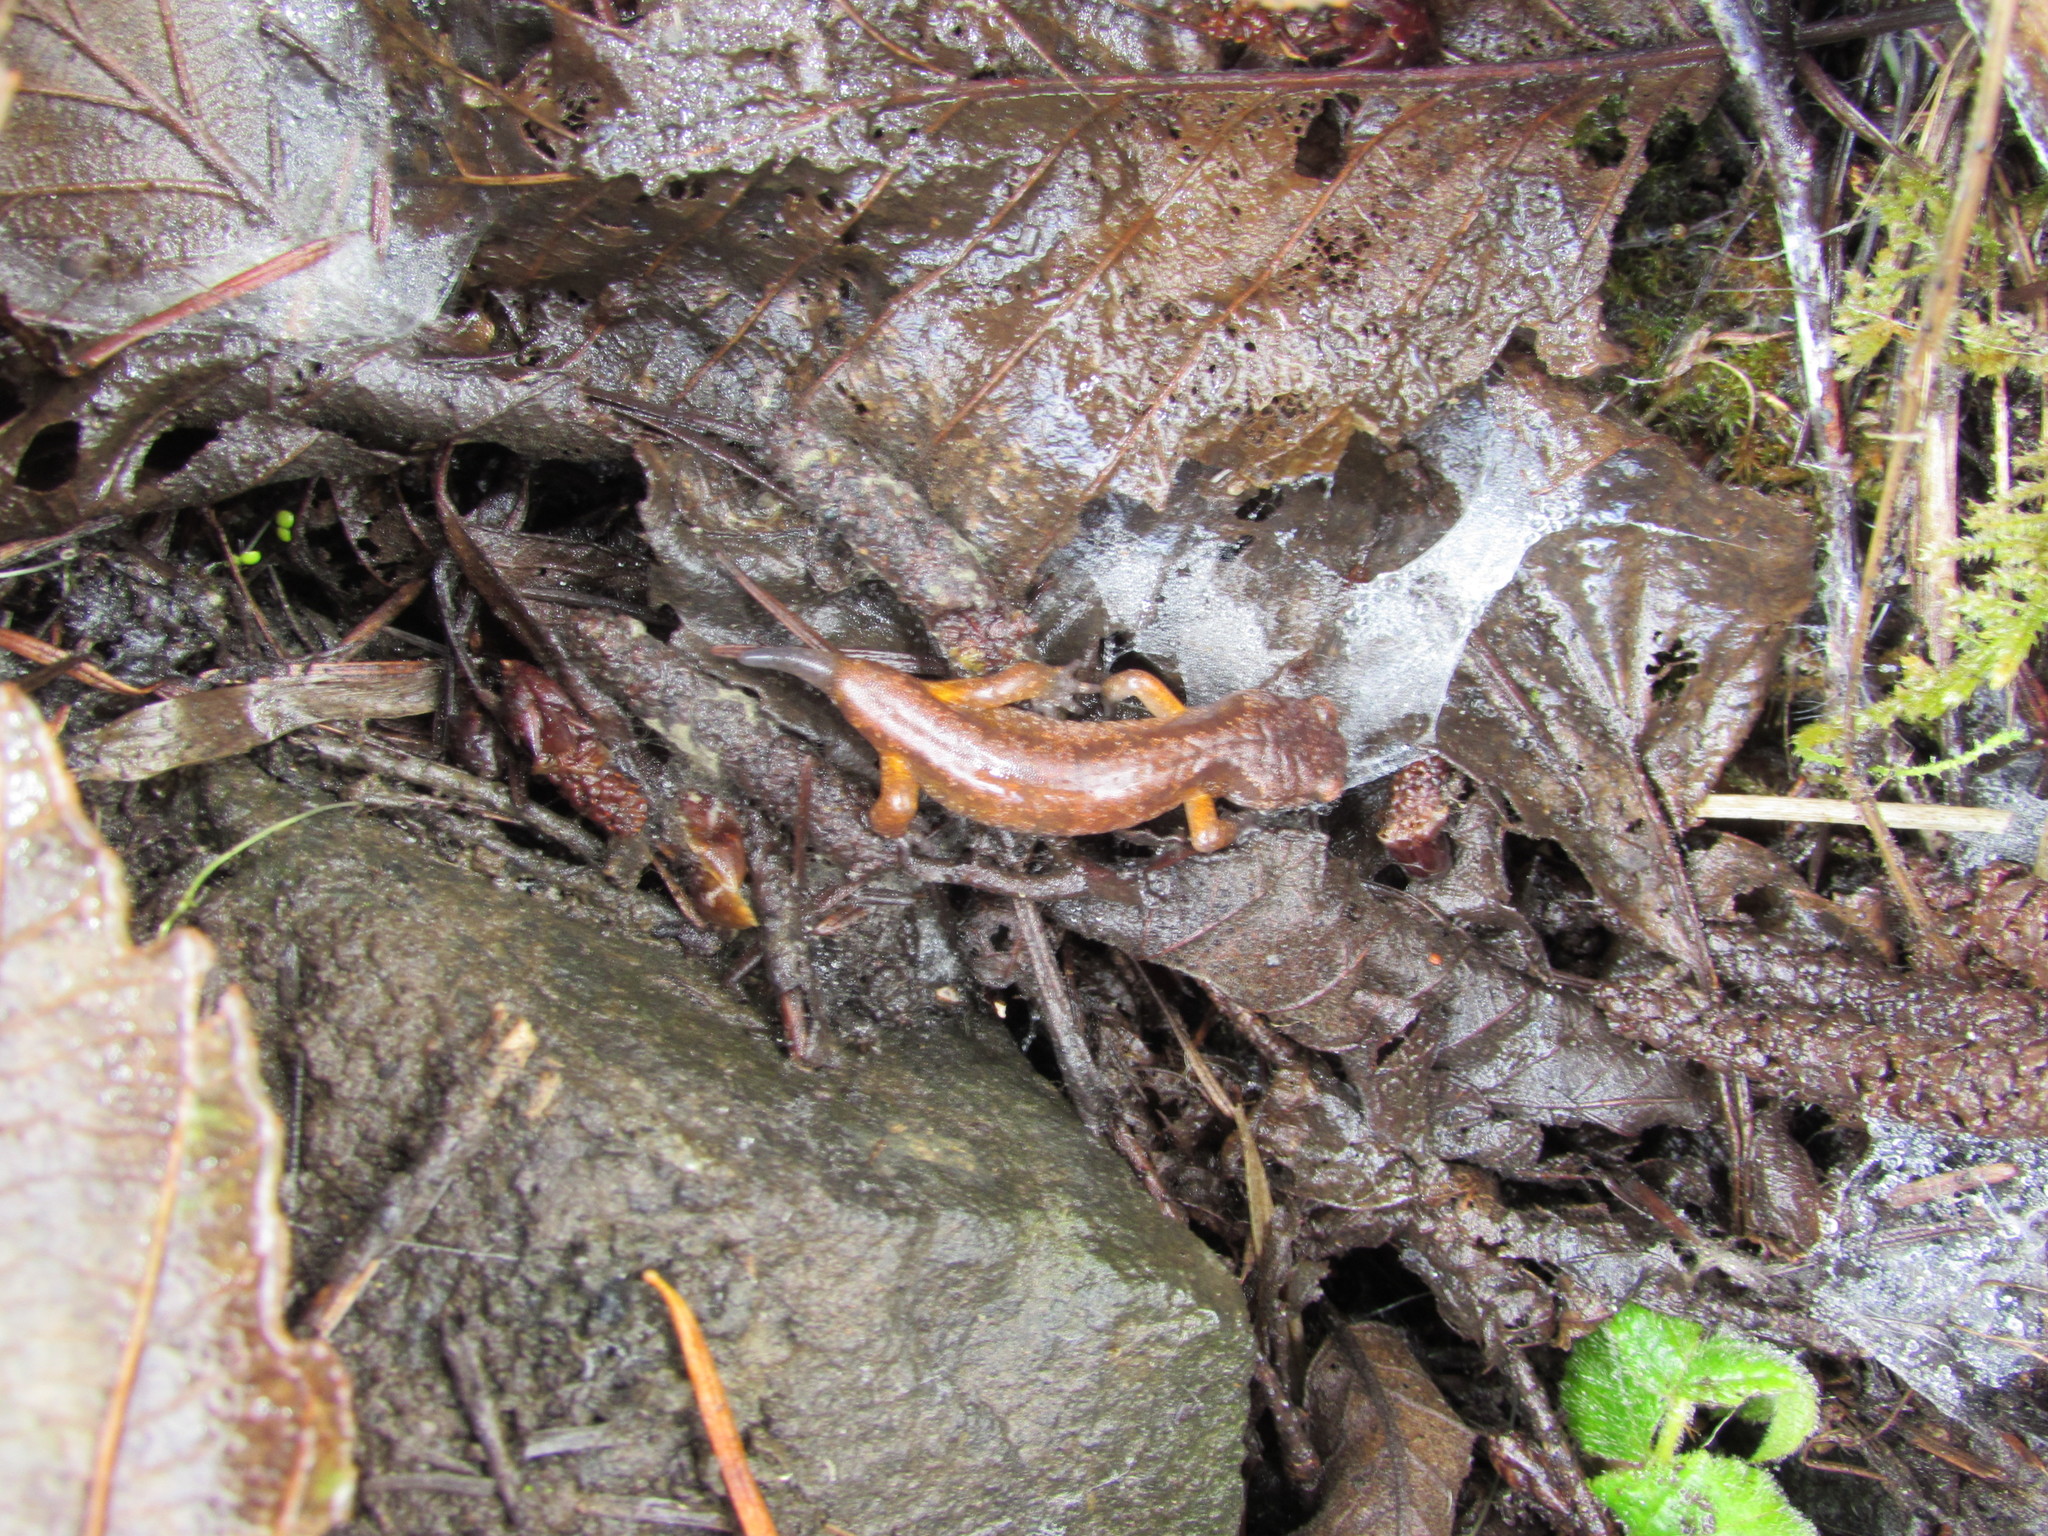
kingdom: Animalia
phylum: Chordata
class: Amphibia
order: Caudata
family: Plethodontidae
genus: Ensatina
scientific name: Ensatina eschscholtzii
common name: Ensatina
